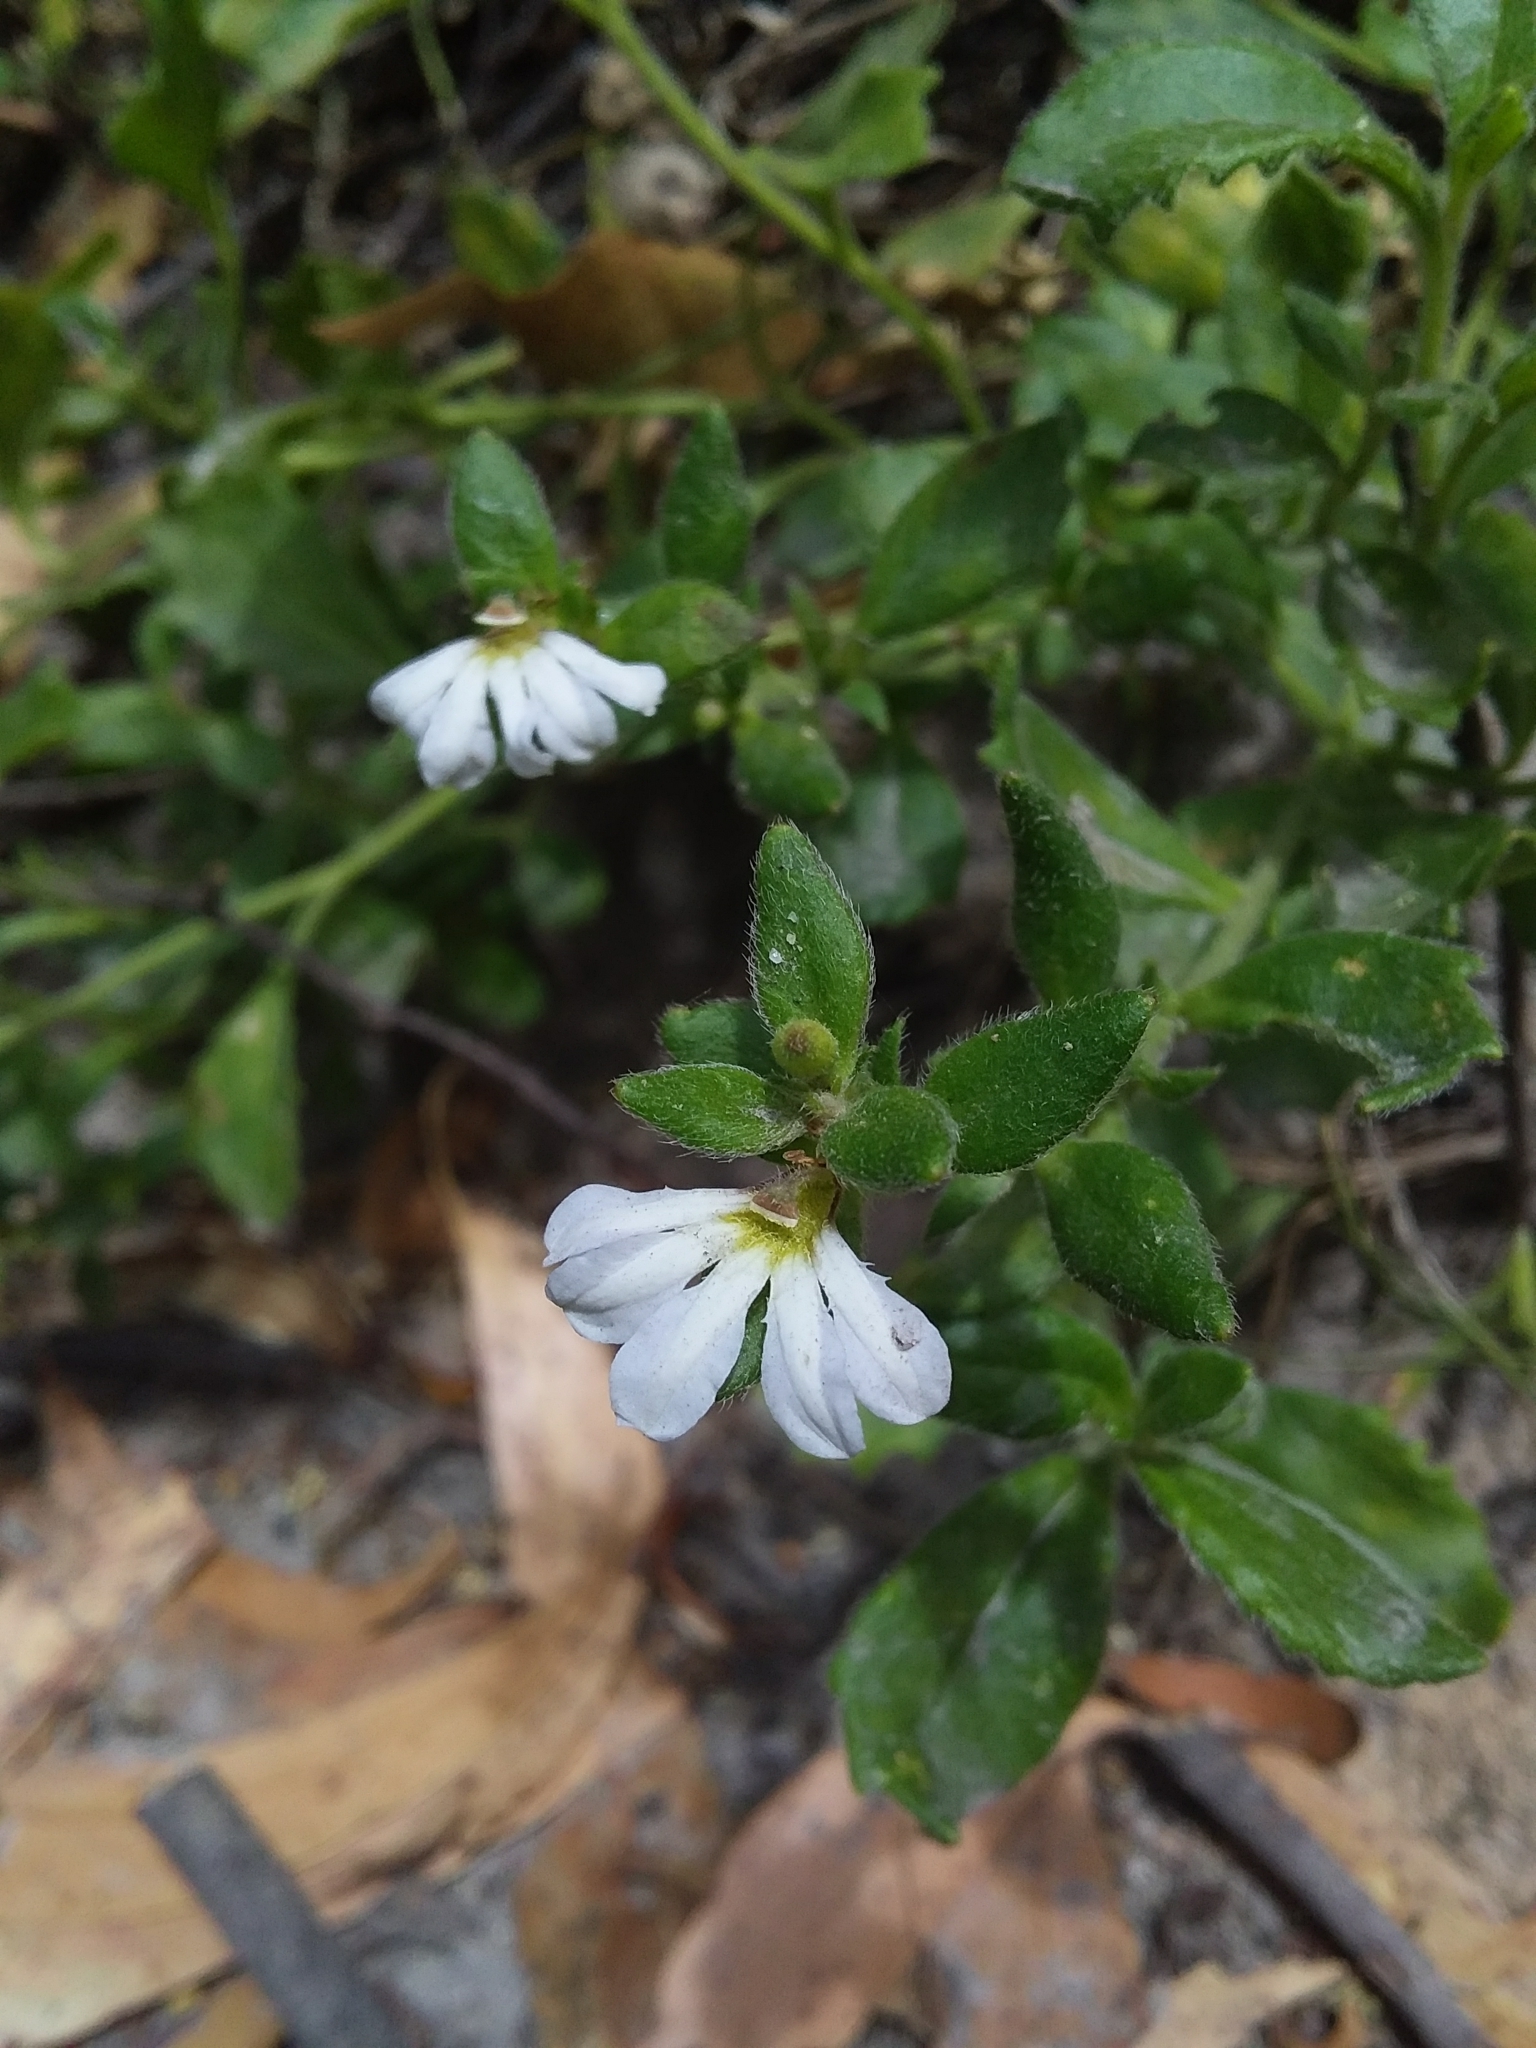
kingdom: Plantae
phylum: Tracheophyta
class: Magnoliopsida
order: Asterales
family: Goodeniaceae
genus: Scaevola
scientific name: Scaevola albida
